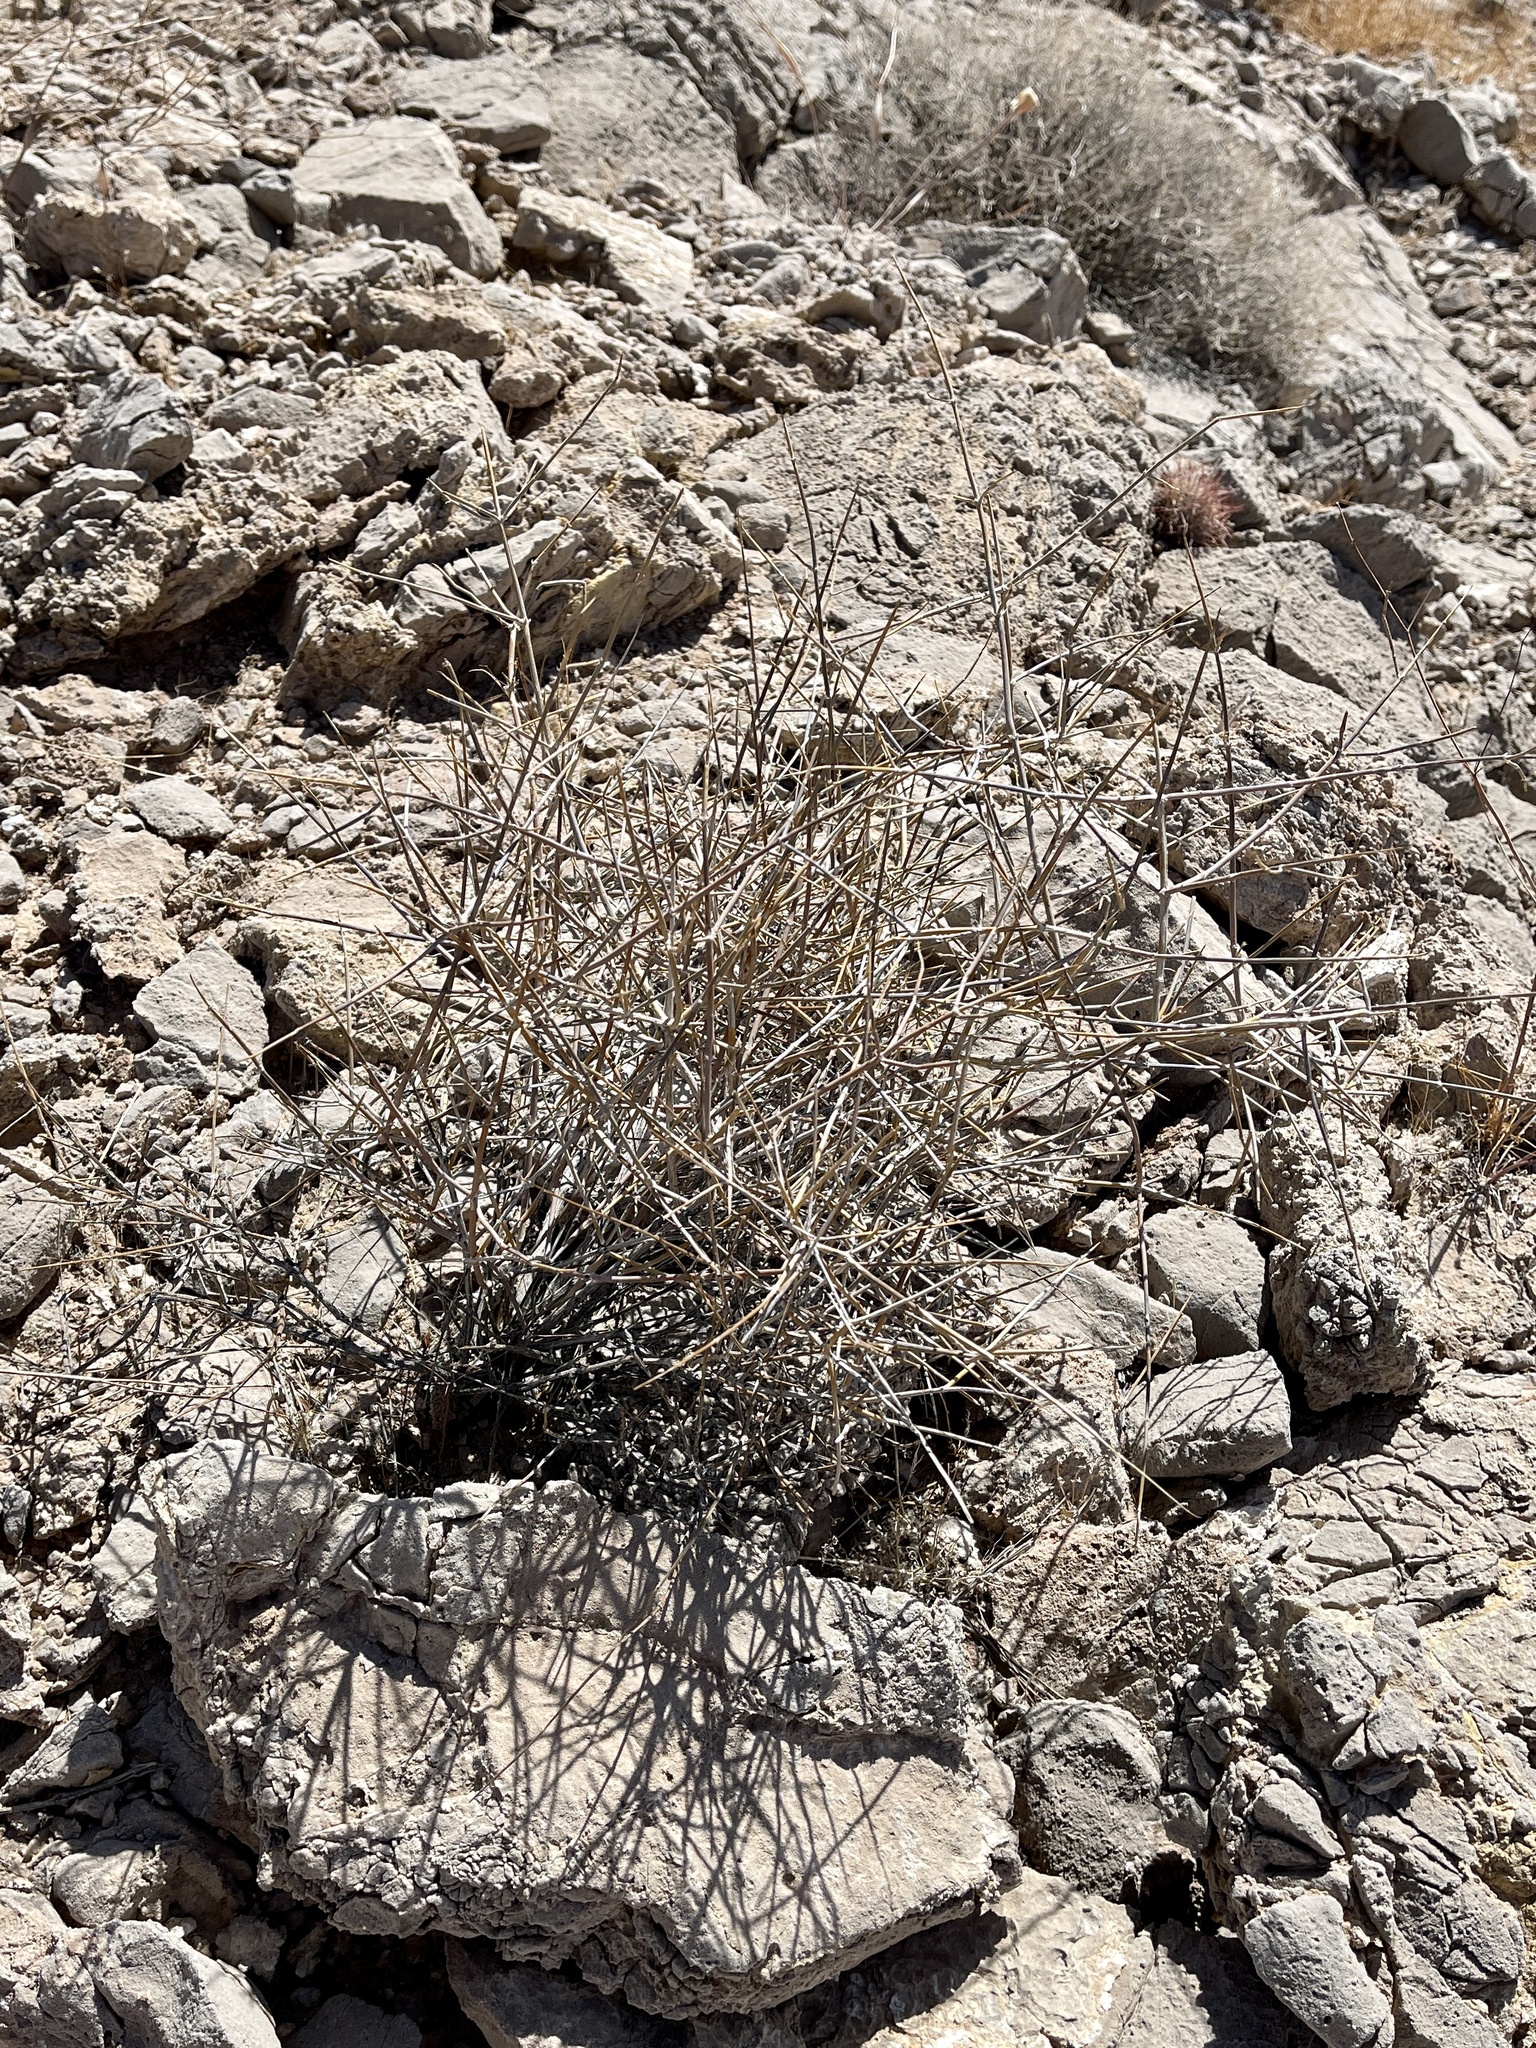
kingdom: Plantae
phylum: Tracheophyta
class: Gnetopsida
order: Ephedrales
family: Ephedraceae
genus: Ephedra
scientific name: Ephedra nevadensis
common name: Gray ephedra
